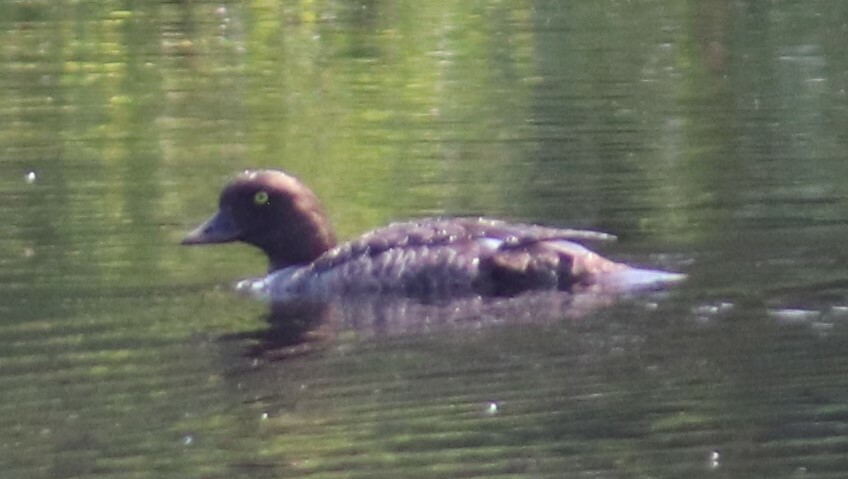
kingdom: Animalia
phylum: Chordata
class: Aves
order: Anseriformes
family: Anatidae
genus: Bucephala
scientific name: Bucephala islandica
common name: Barrow's goldeneye
